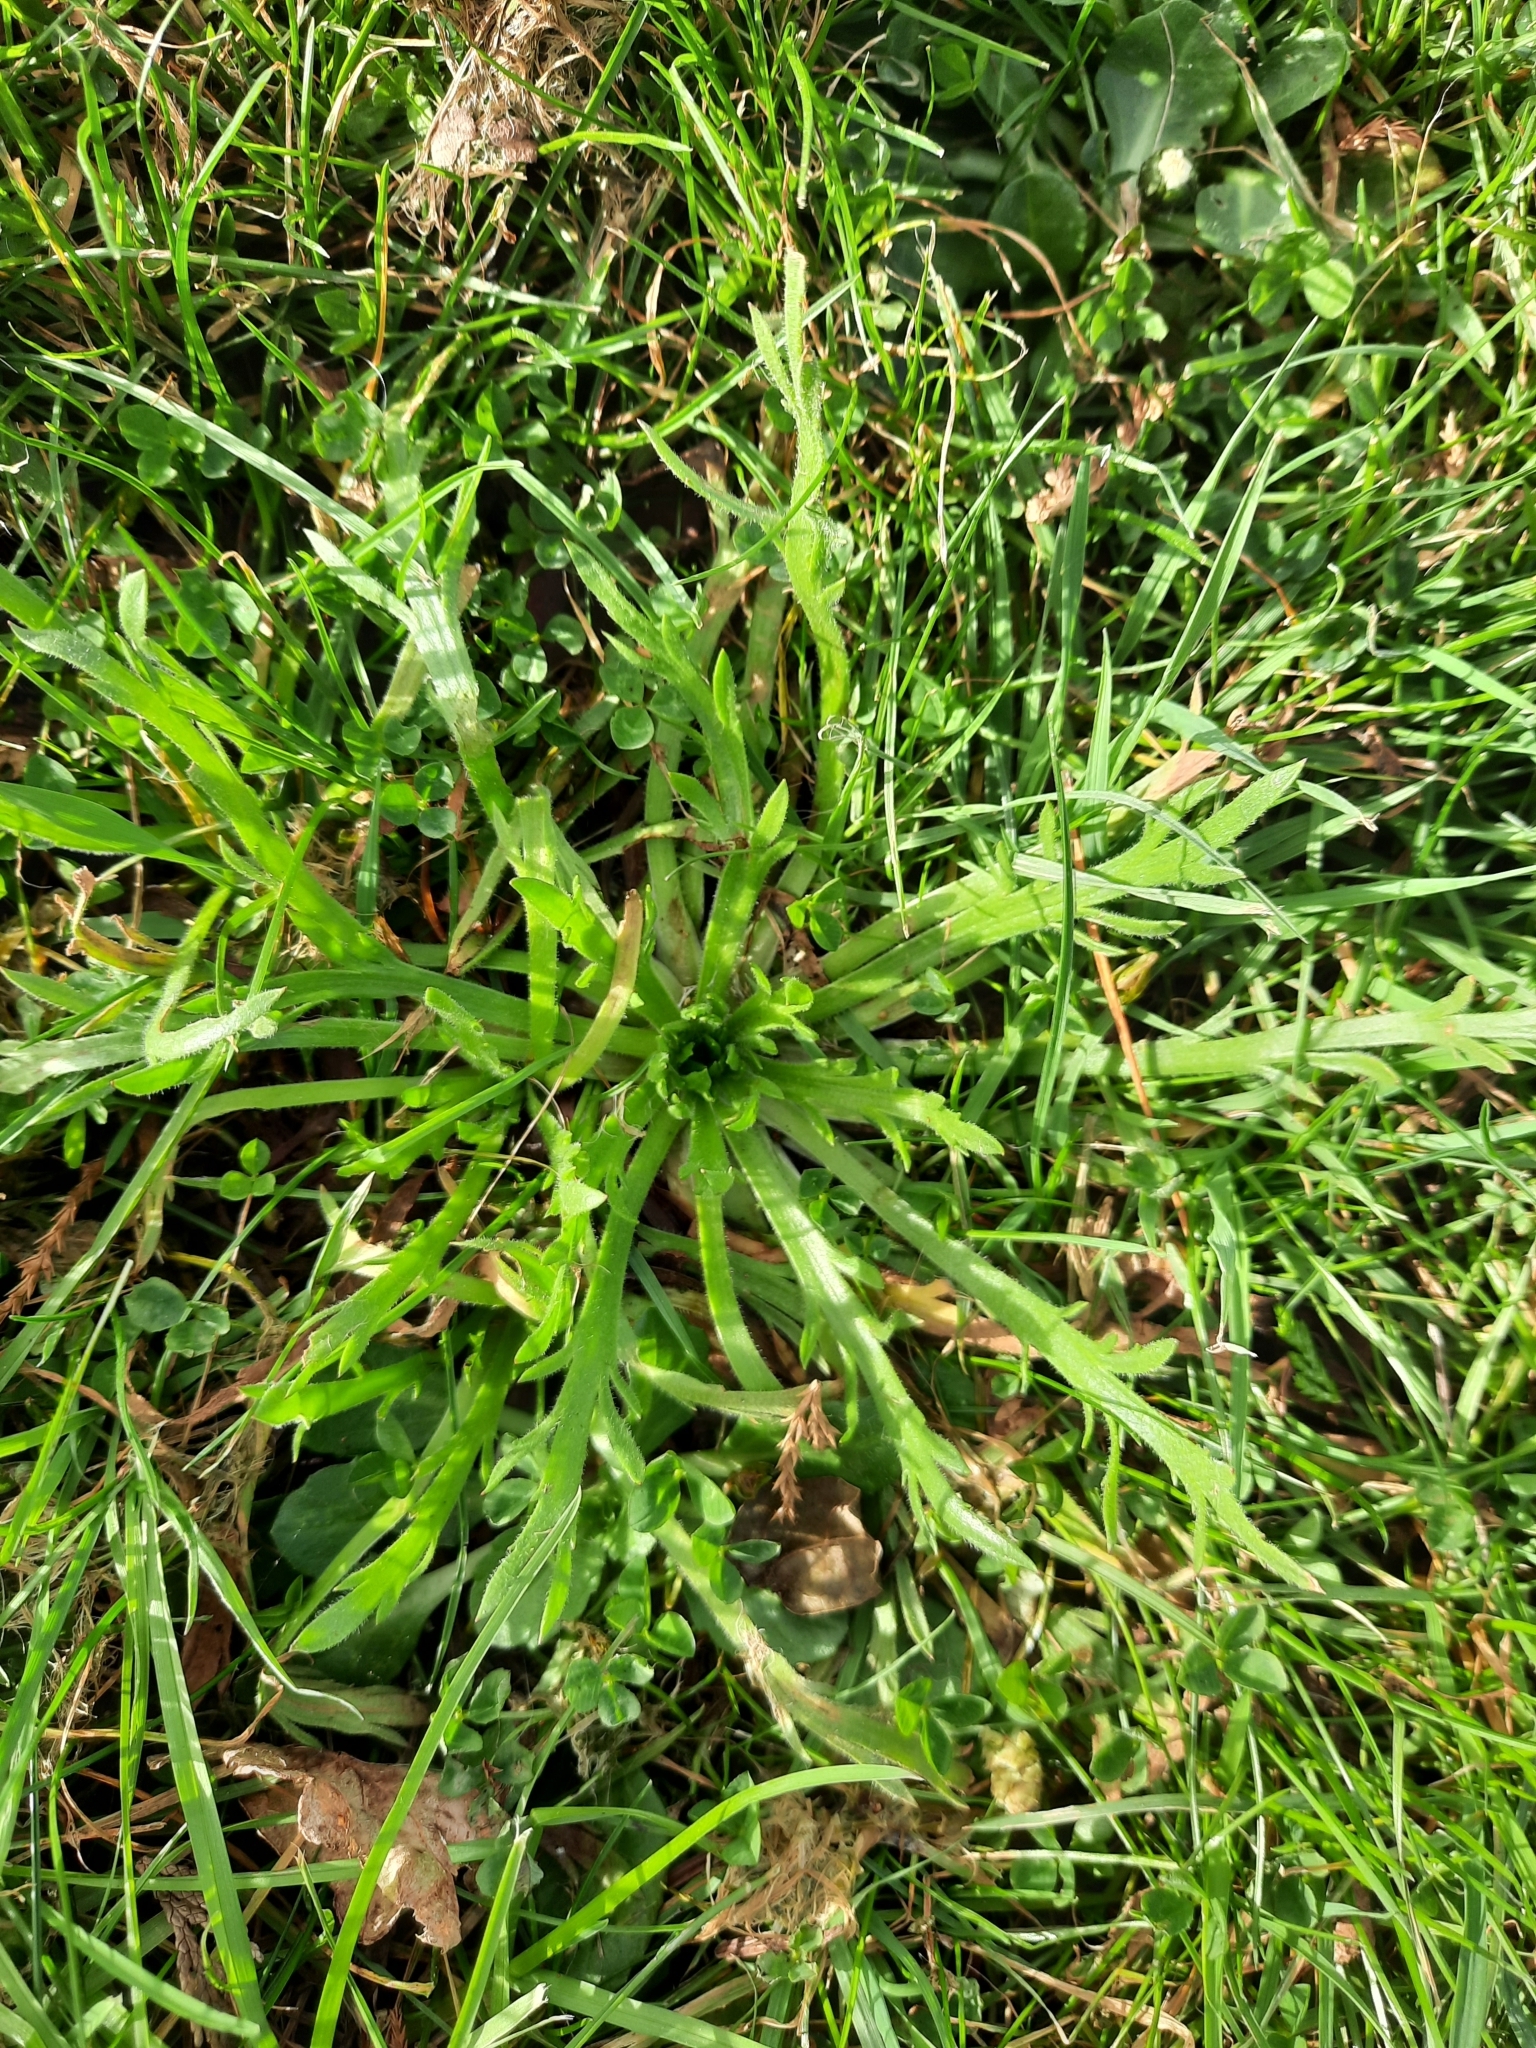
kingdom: Plantae
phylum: Tracheophyta
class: Magnoliopsida
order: Lamiales
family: Plantaginaceae
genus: Plantago
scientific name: Plantago coronopus
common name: Buck's-horn plantain
